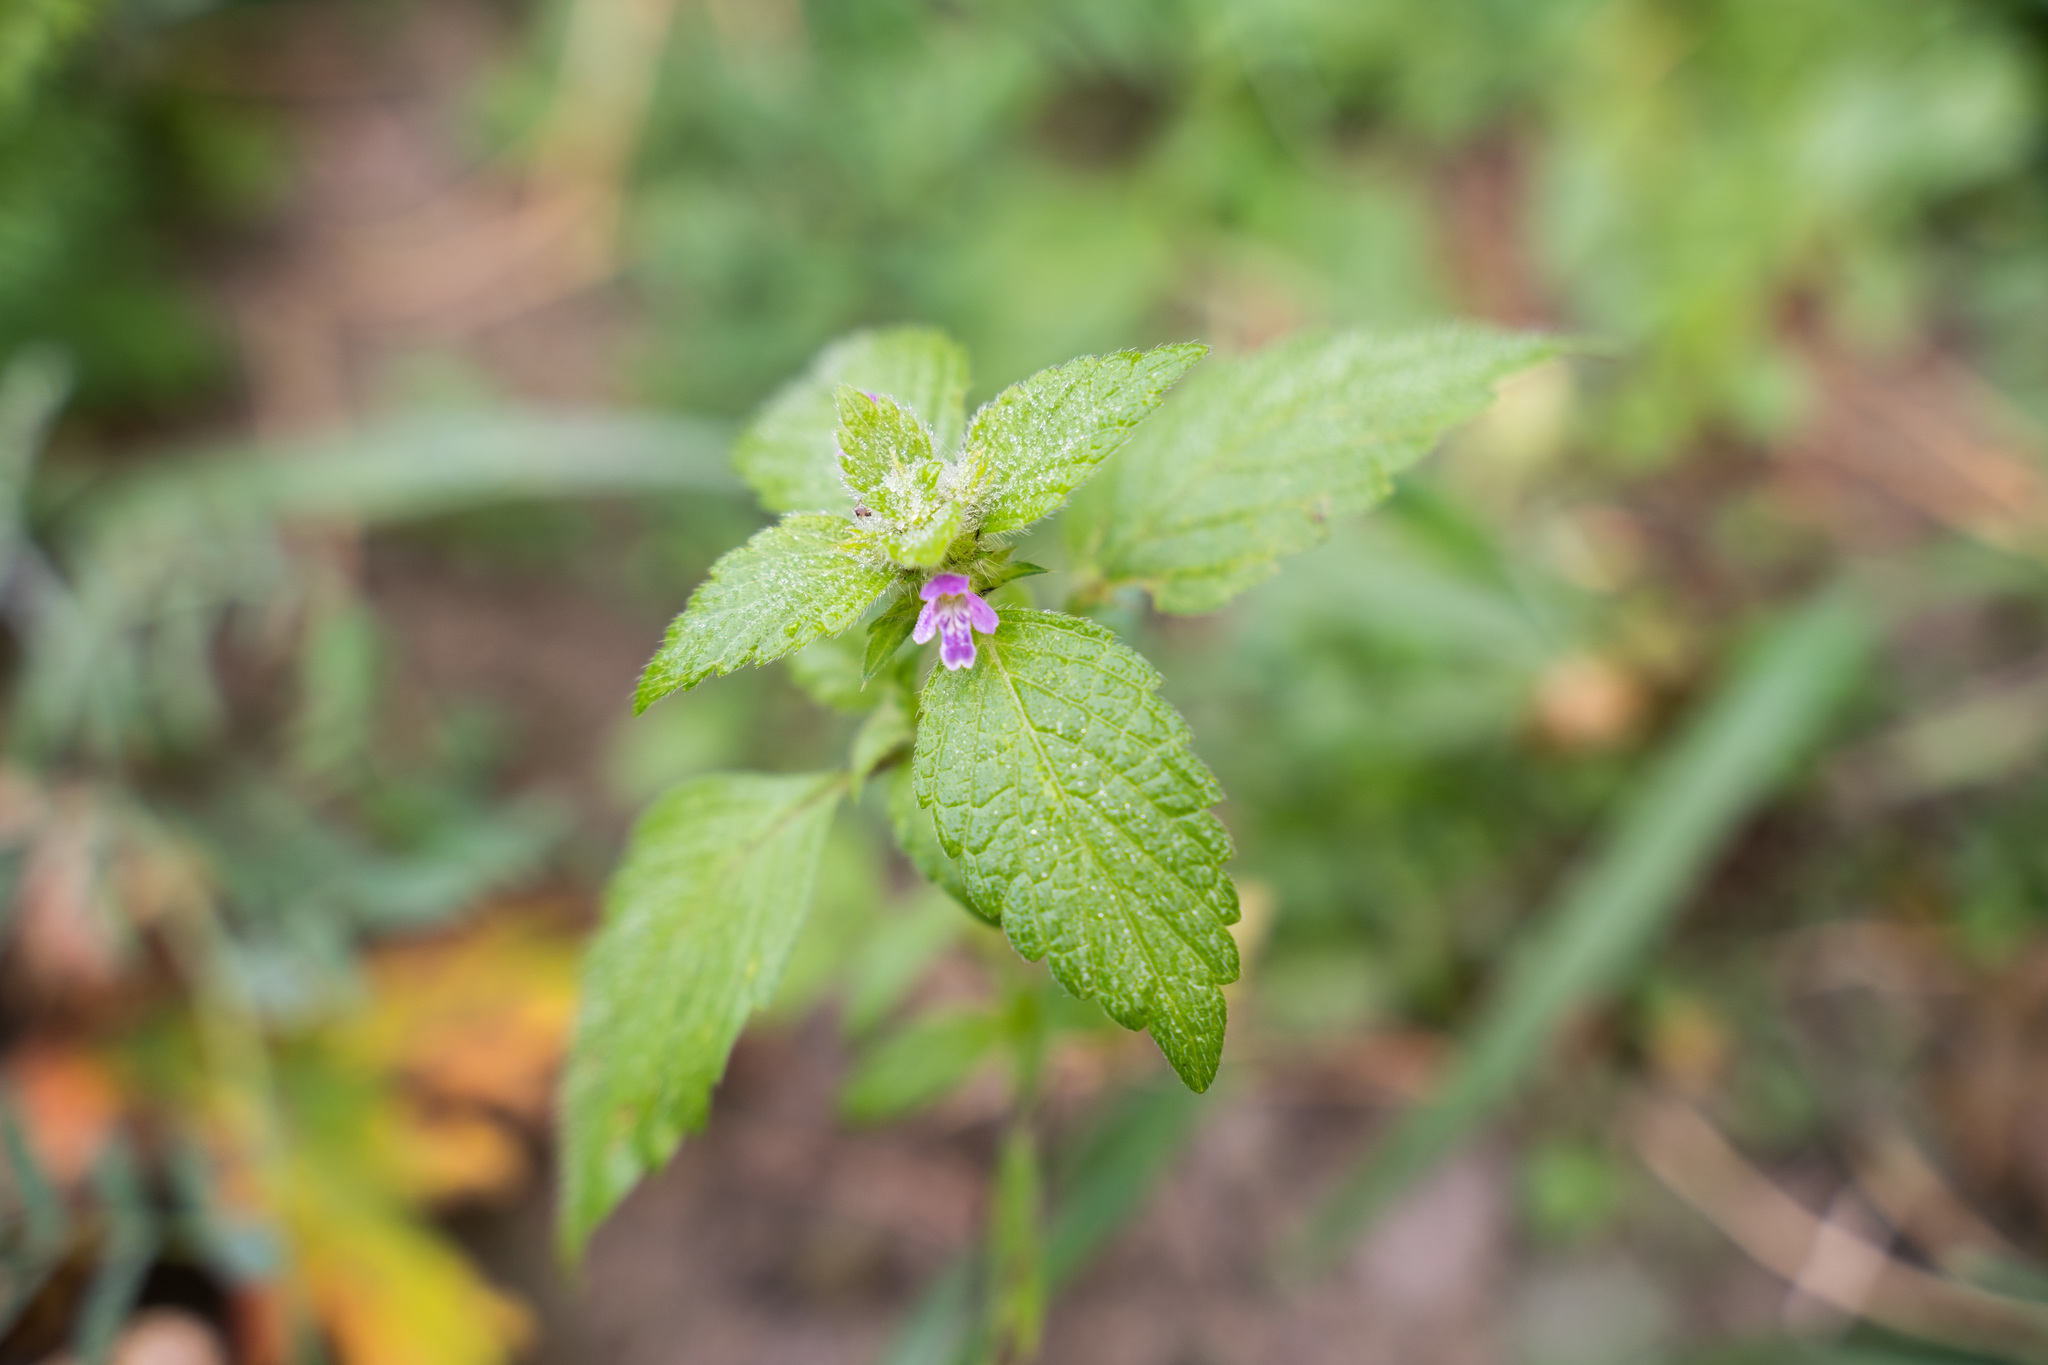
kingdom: Plantae
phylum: Tracheophyta
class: Magnoliopsida
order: Lamiales
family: Lamiaceae
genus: Galeopsis
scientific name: Galeopsis bifida
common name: Bifid hemp-nettle
